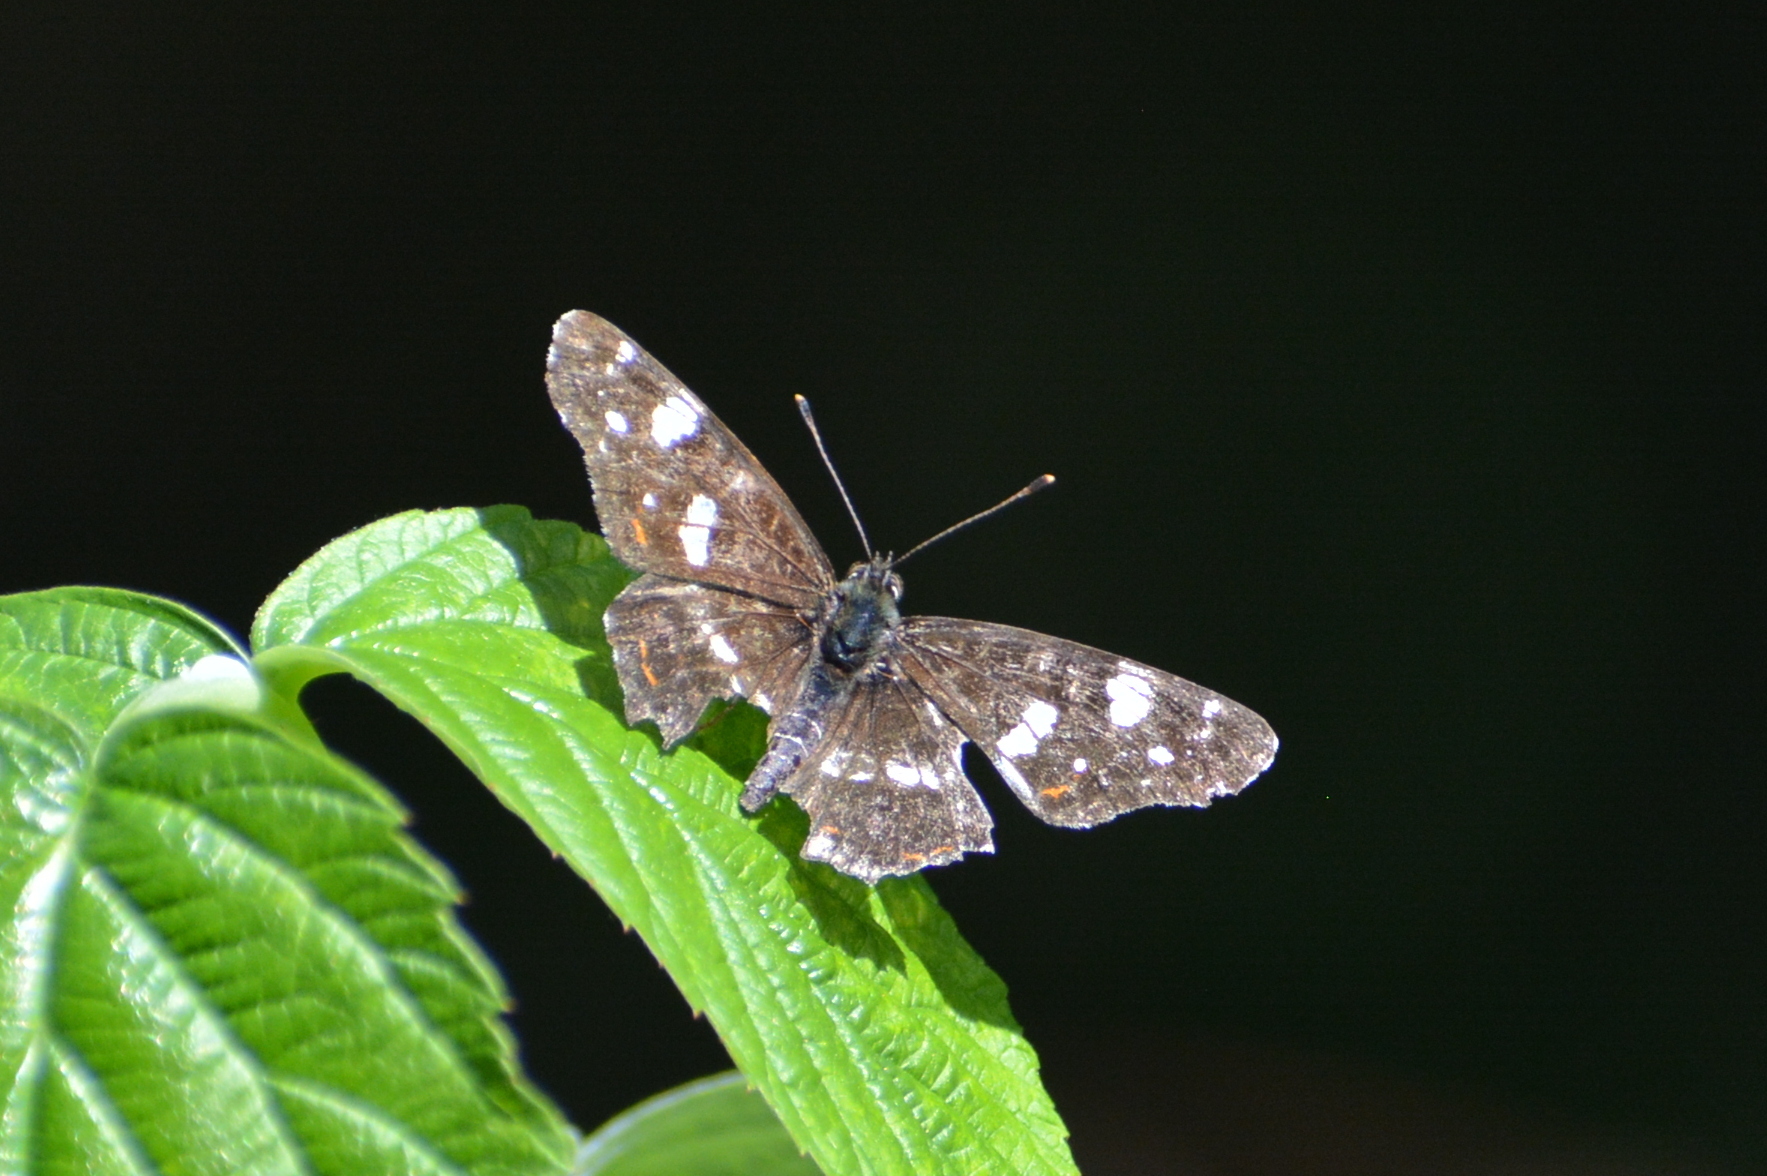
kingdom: Animalia
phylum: Arthropoda
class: Insecta
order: Lepidoptera
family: Nymphalidae
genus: Araschnia
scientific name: Araschnia levana
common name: Map butterfly
